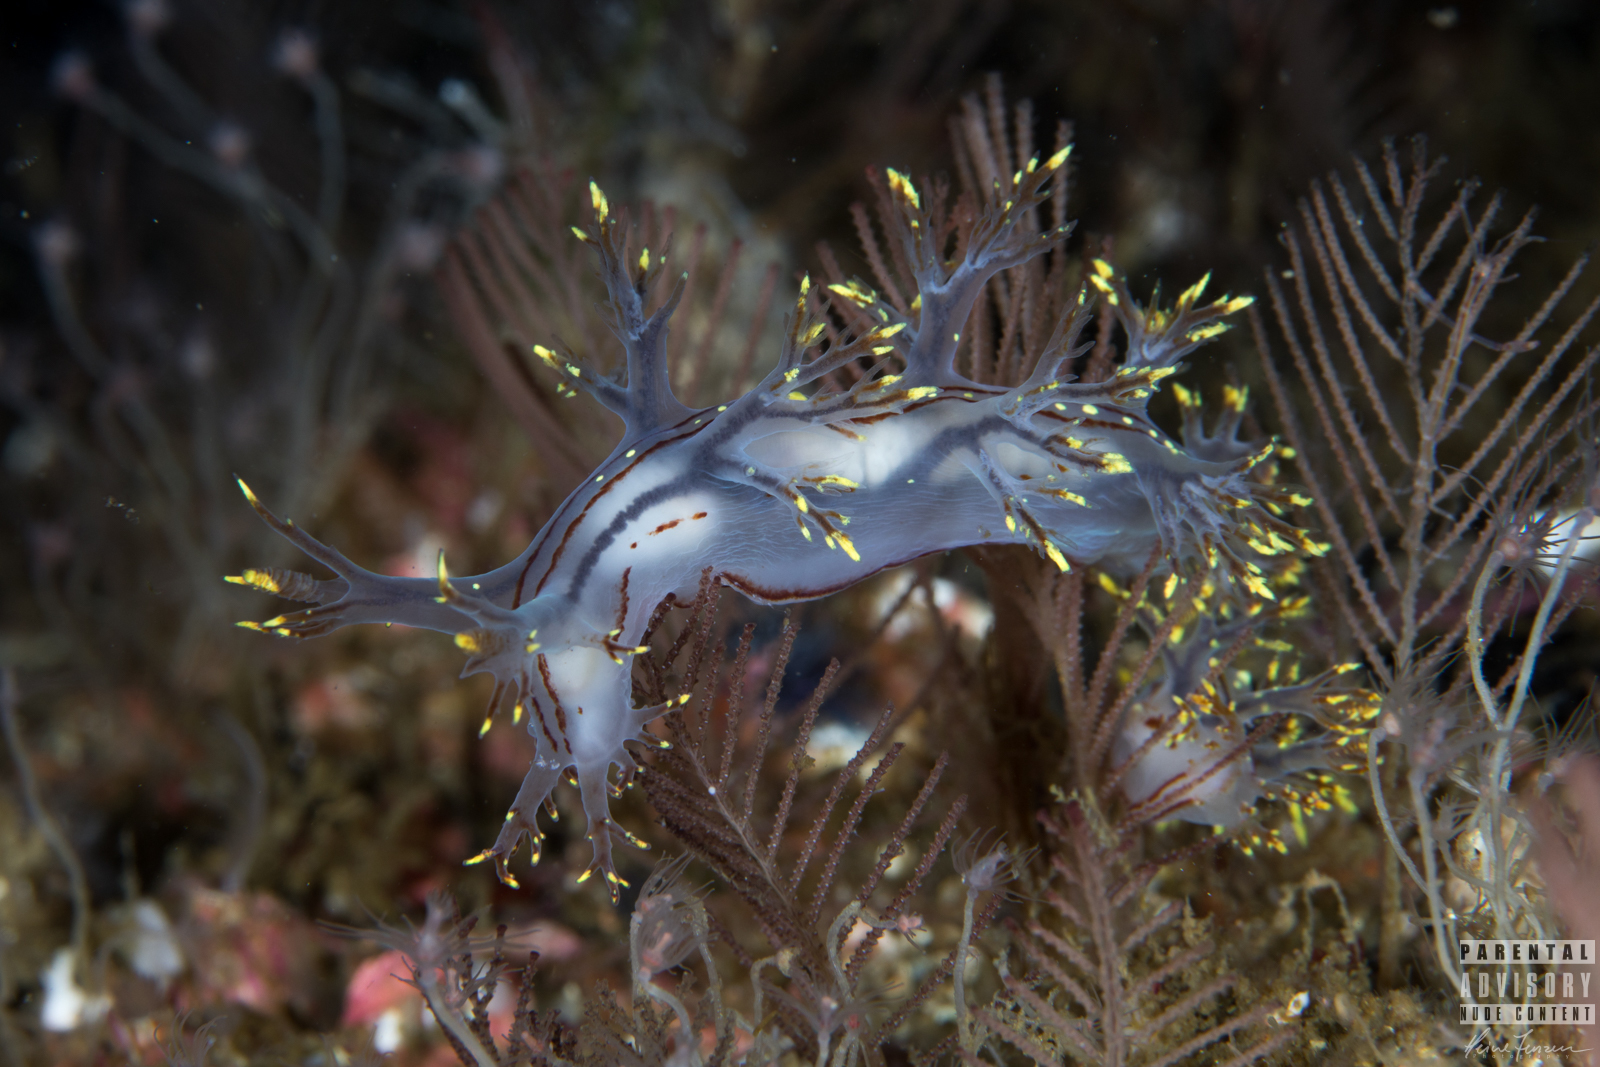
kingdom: Animalia
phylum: Mollusca
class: Gastropoda
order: Nudibranchia
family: Dendronotidae
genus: Dendronotus
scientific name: Dendronotus yrjargul
